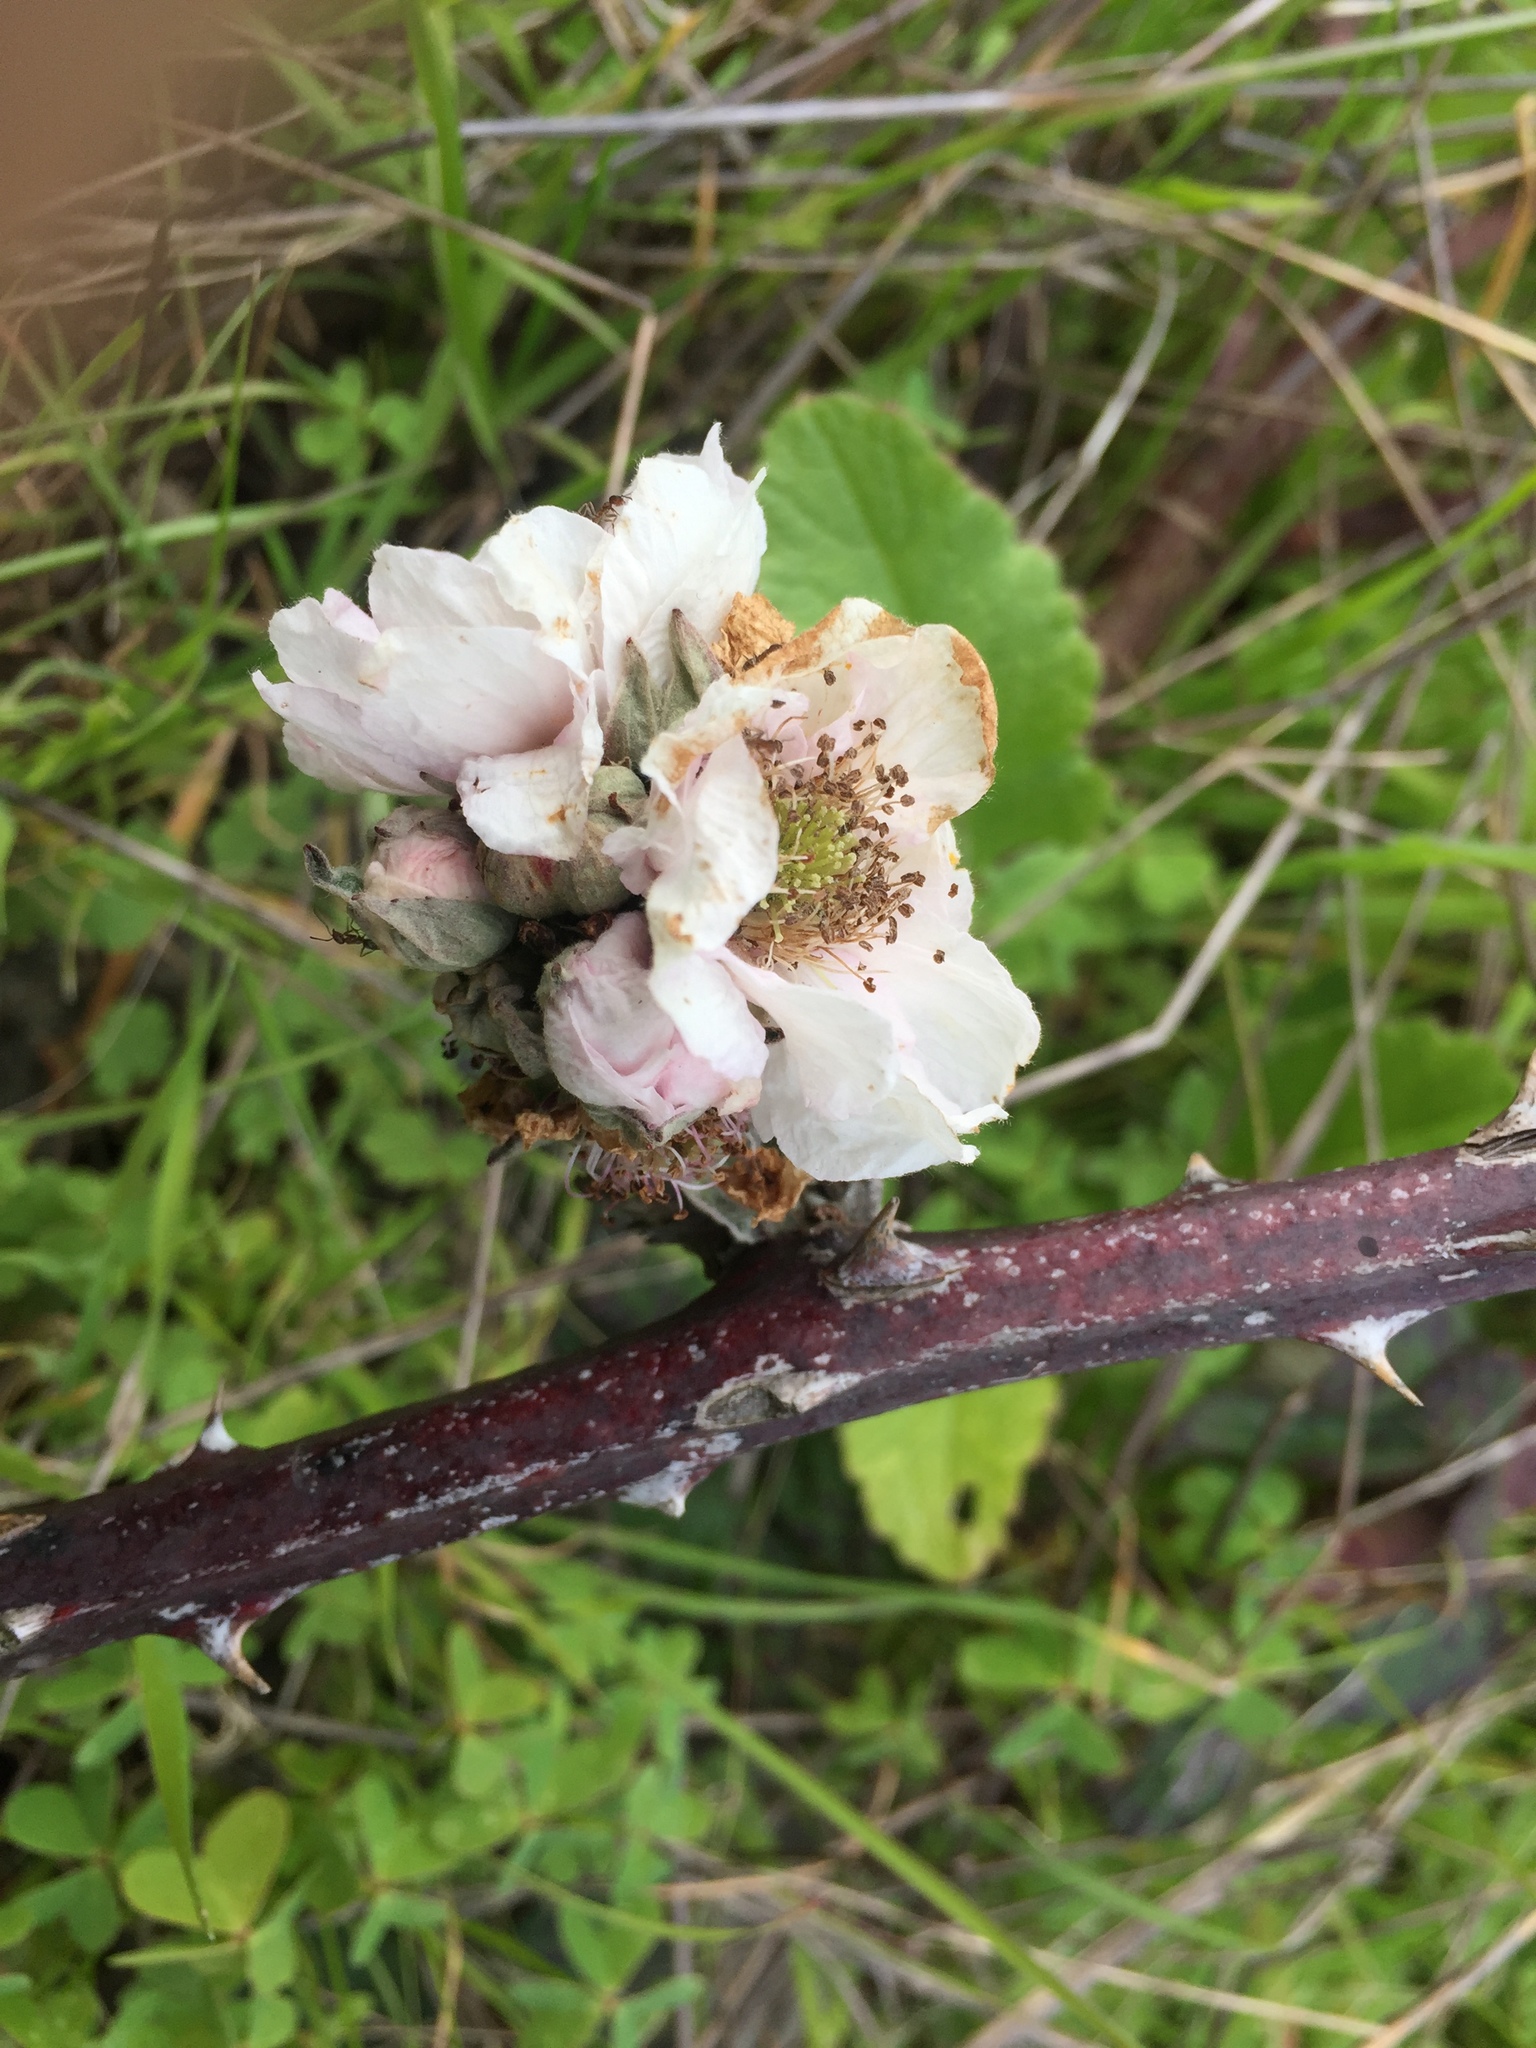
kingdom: Plantae
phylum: Tracheophyta
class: Magnoliopsida
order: Rosales
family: Rosaceae
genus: Rubus
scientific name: Rubus armeniacus
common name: Himalayan blackberry
